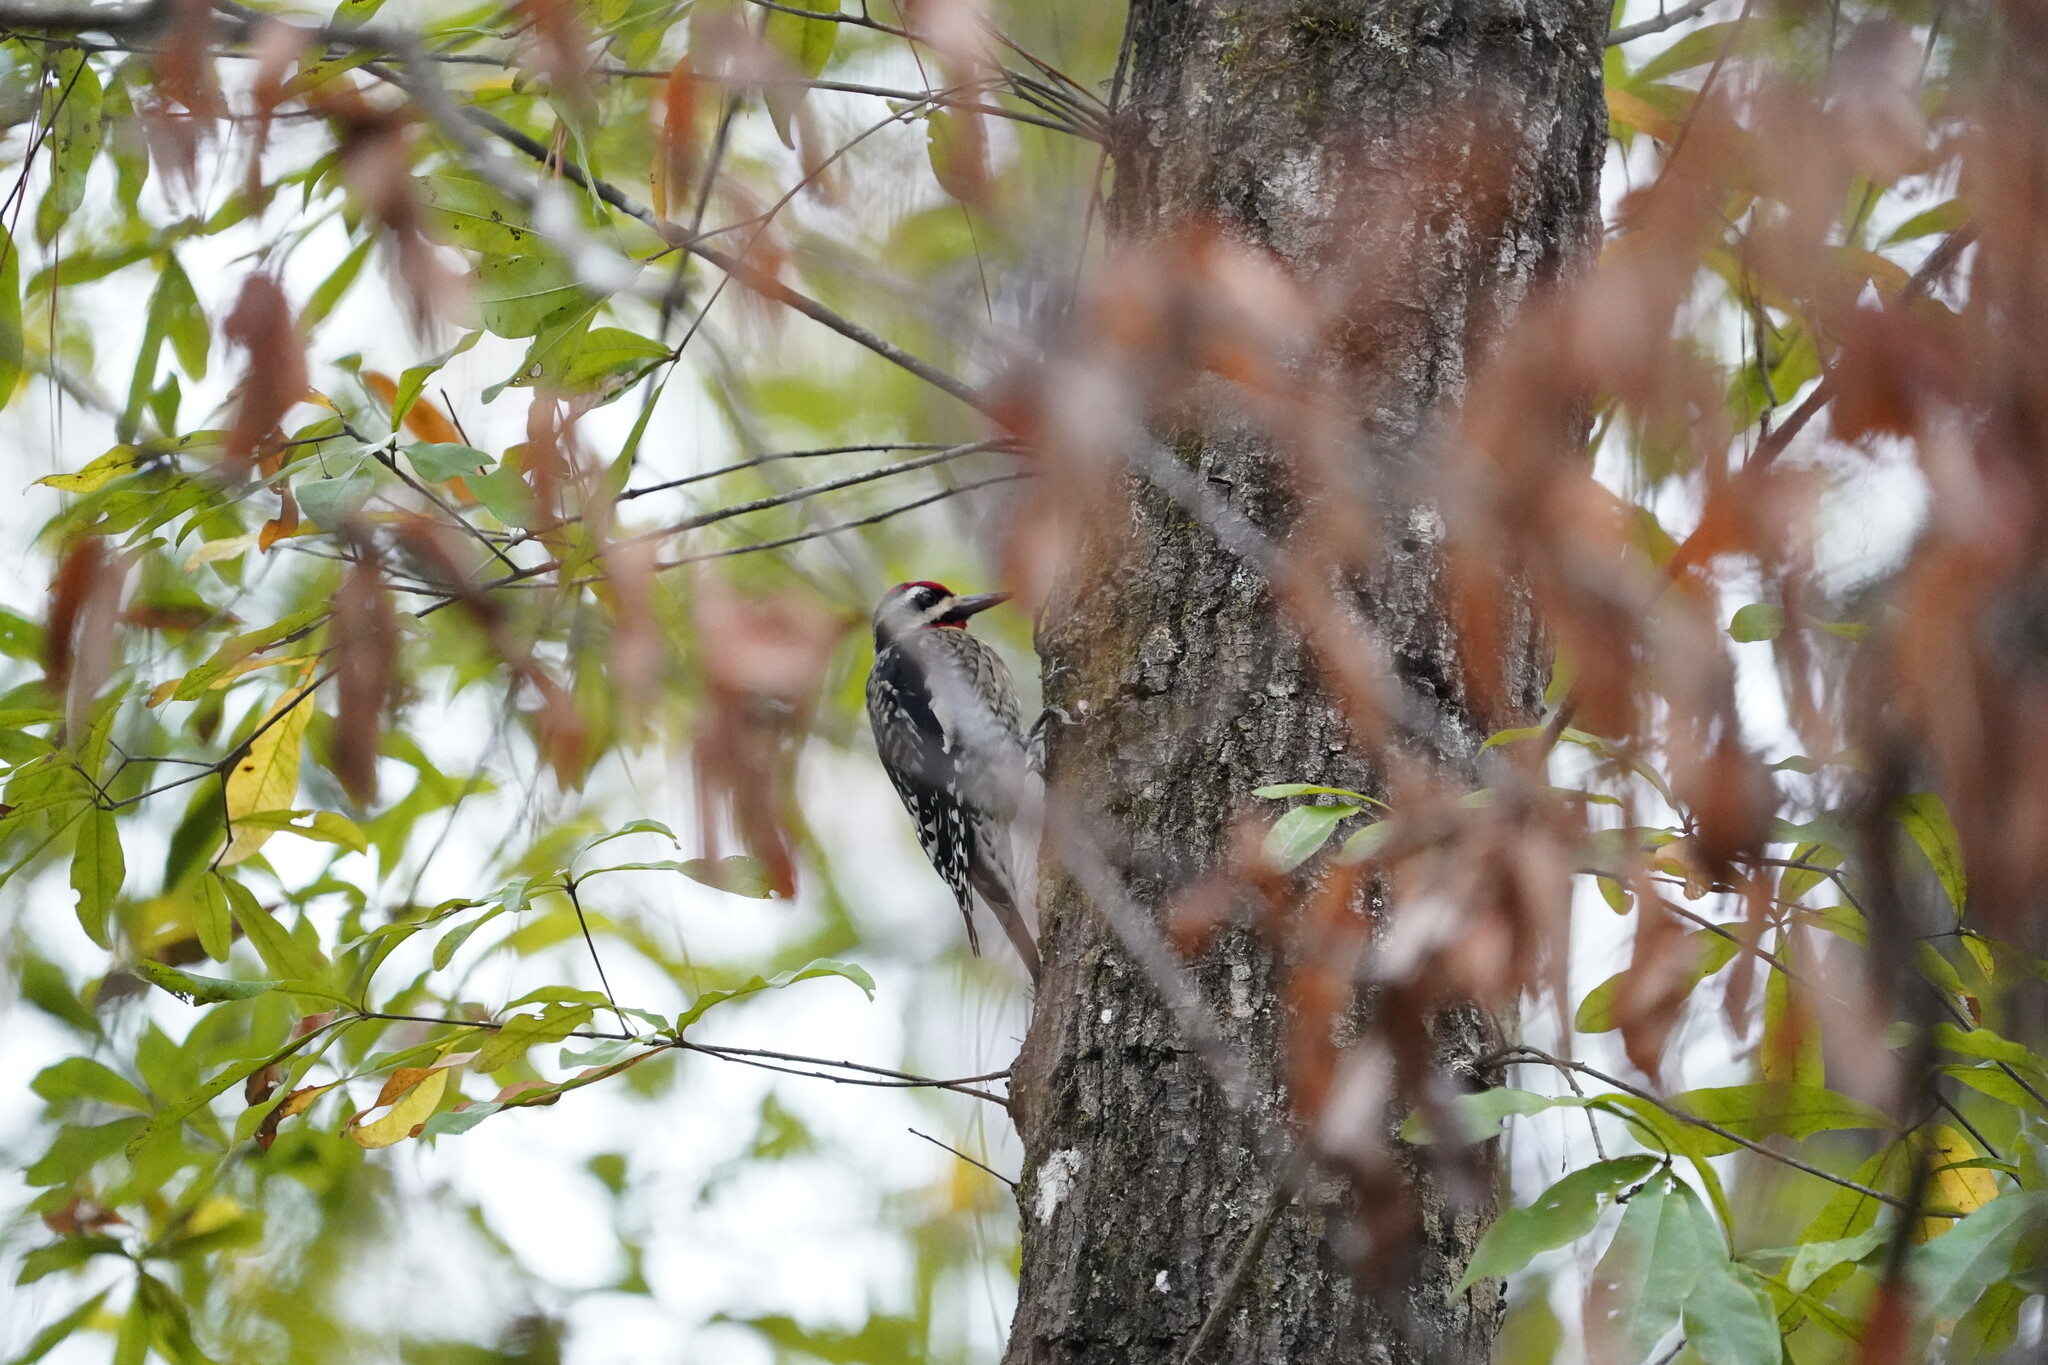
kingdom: Animalia
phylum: Chordata
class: Aves
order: Piciformes
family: Picidae
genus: Sphyrapicus
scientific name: Sphyrapicus varius
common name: Yellow-bellied sapsucker
